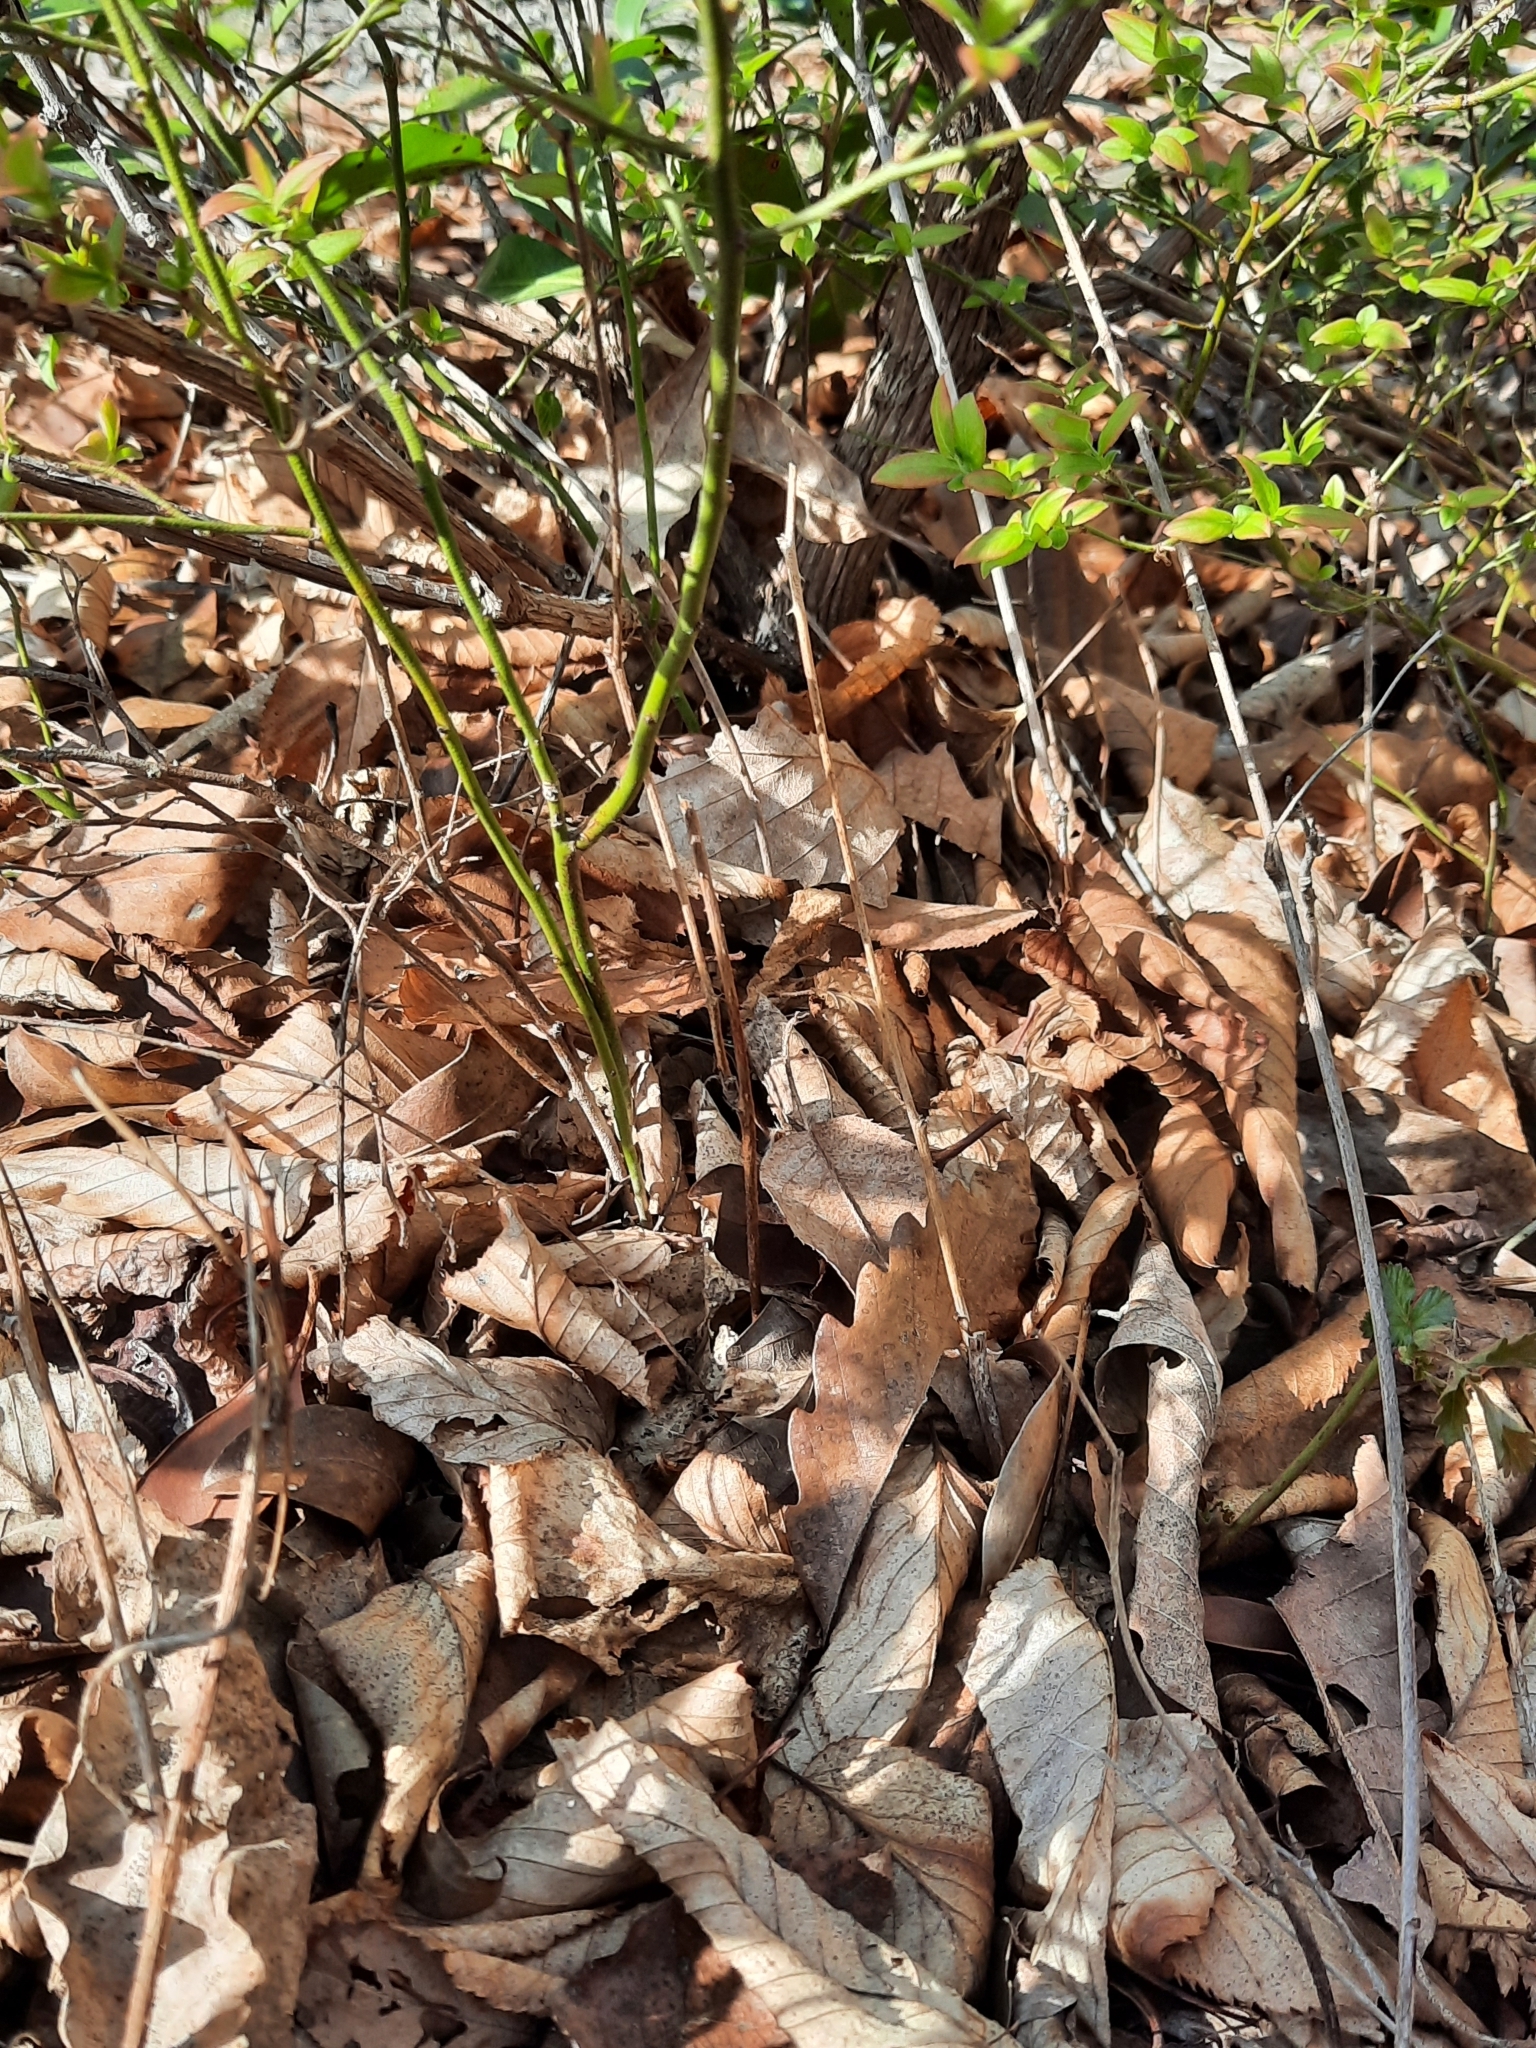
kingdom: Plantae
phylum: Tracheophyta
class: Magnoliopsida
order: Ericales
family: Ericaceae
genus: Kalmia
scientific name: Kalmia latifolia
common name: Mountain-laurel
